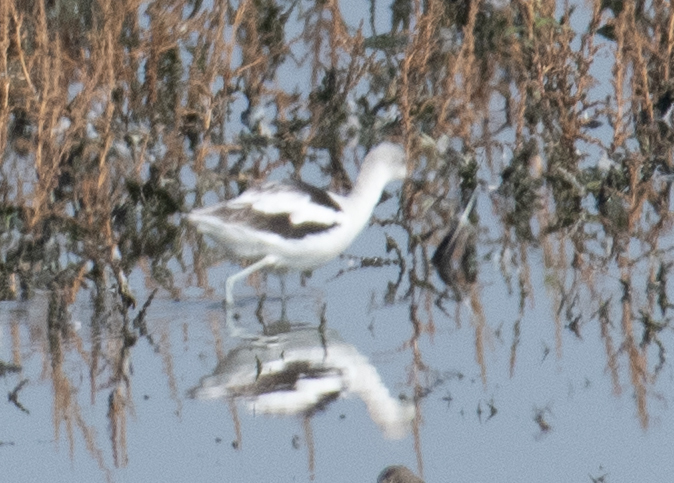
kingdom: Animalia
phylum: Chordata
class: Aves
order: Charadriiformes
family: Recurvirostridae
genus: Recurvirostra
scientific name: Recurvirostra americana
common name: American avocet
